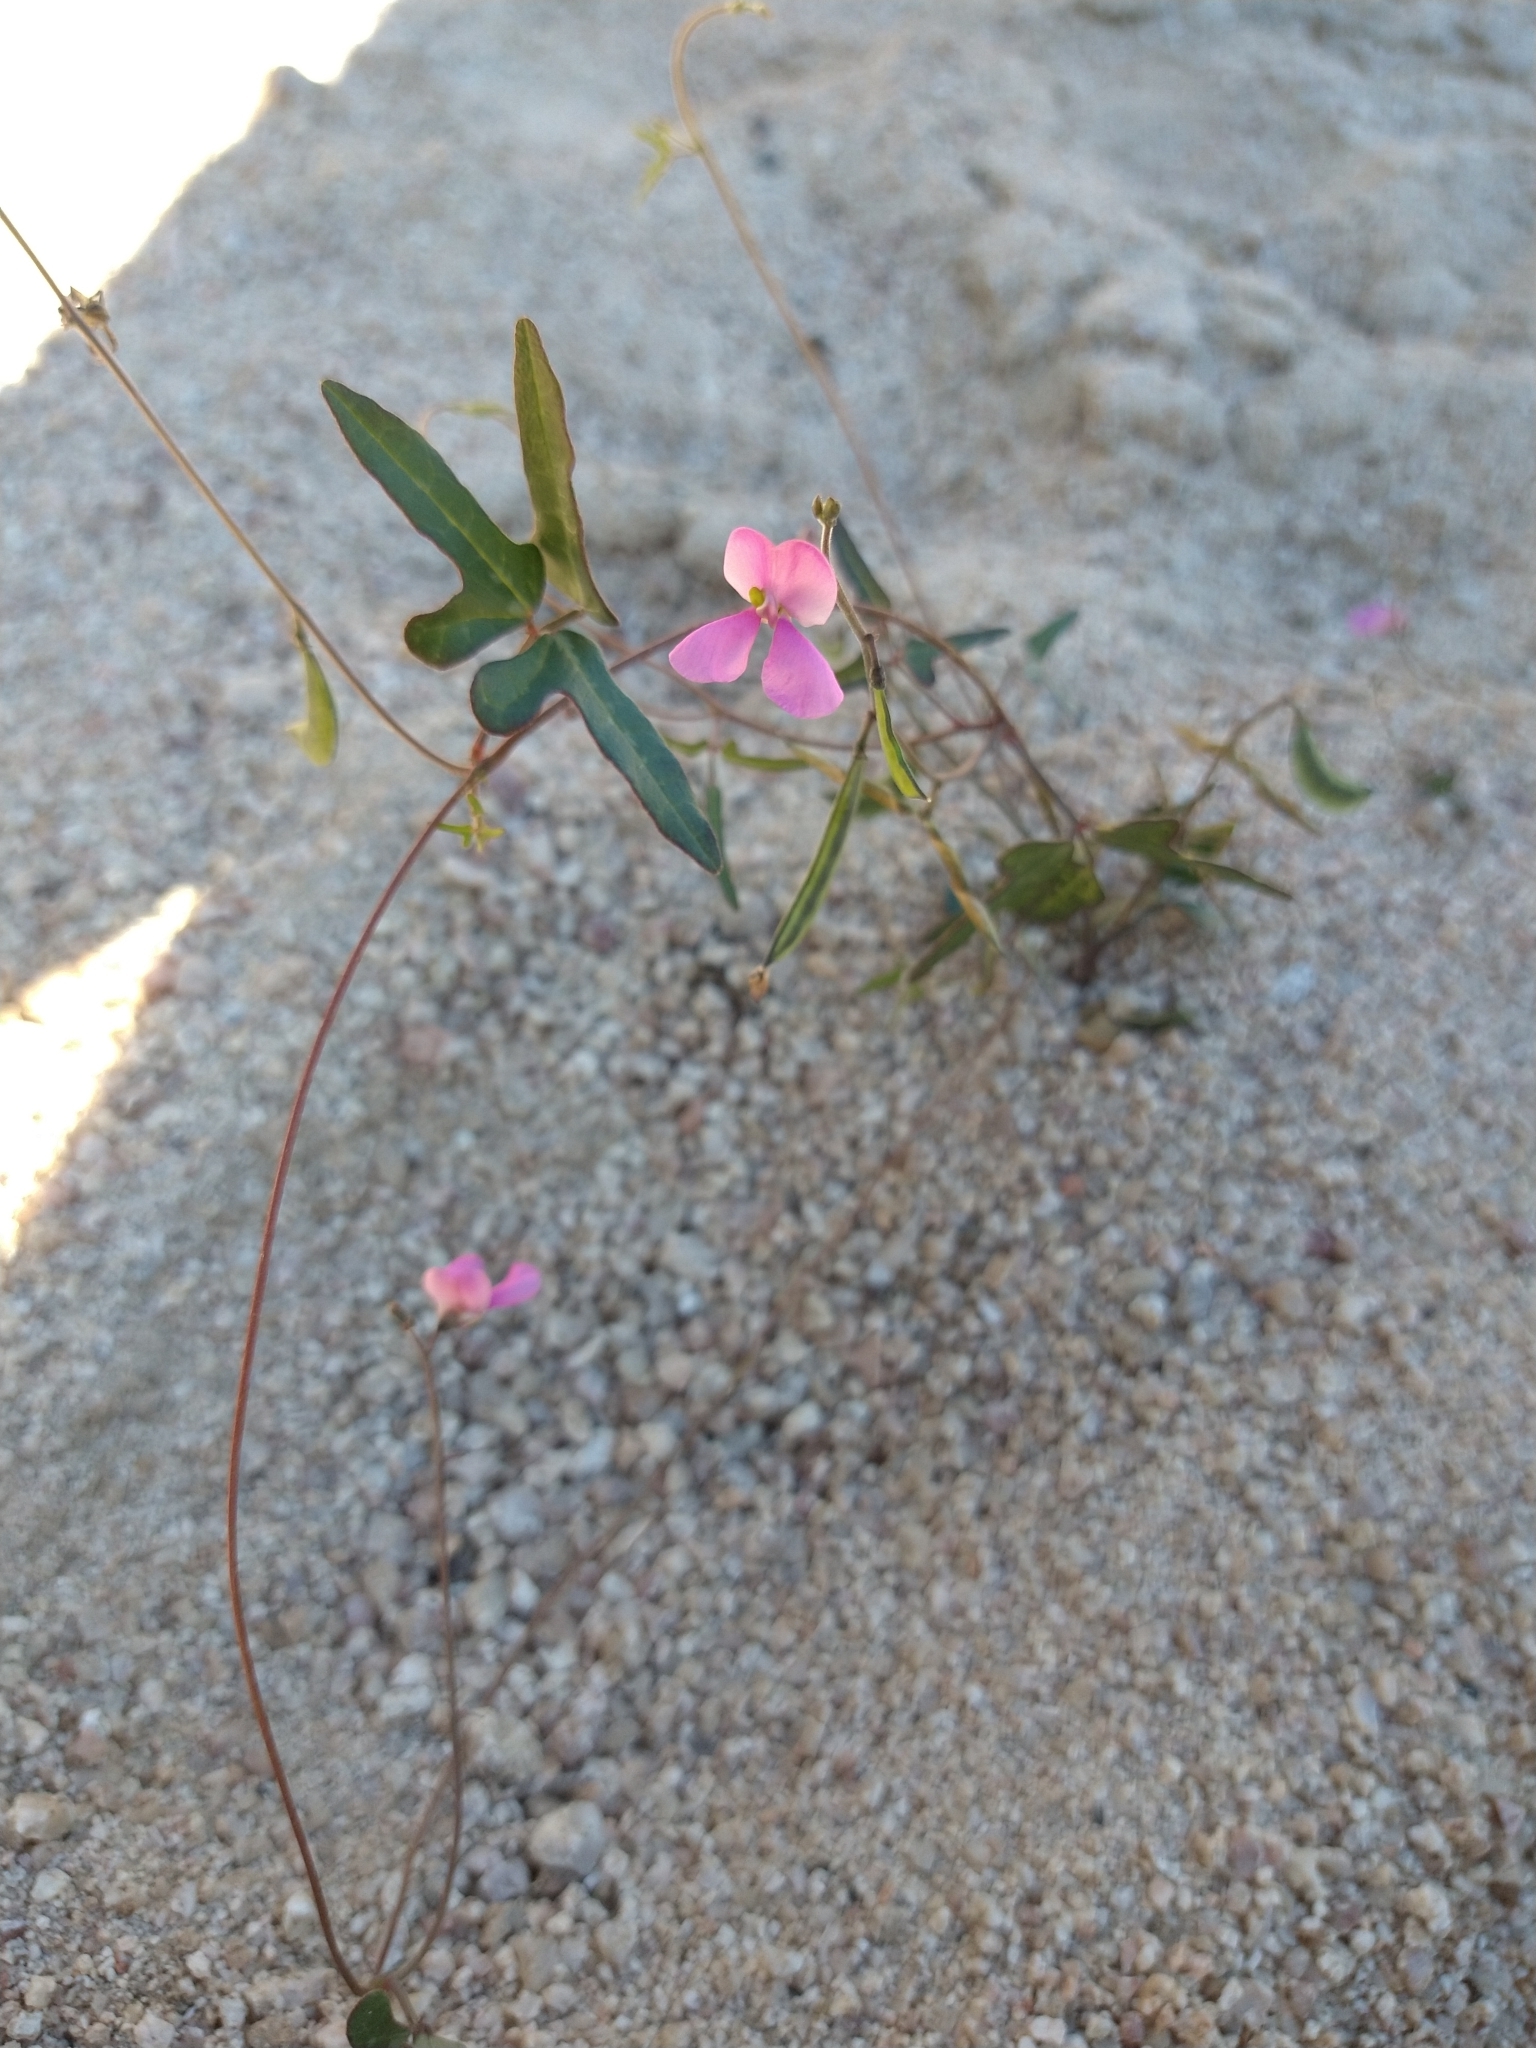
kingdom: Plantae
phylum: Tracheophyta
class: Magnoliopsida
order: Fabales
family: Fabaceae
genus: Phaseolus
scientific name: Phaseolus filiformis
